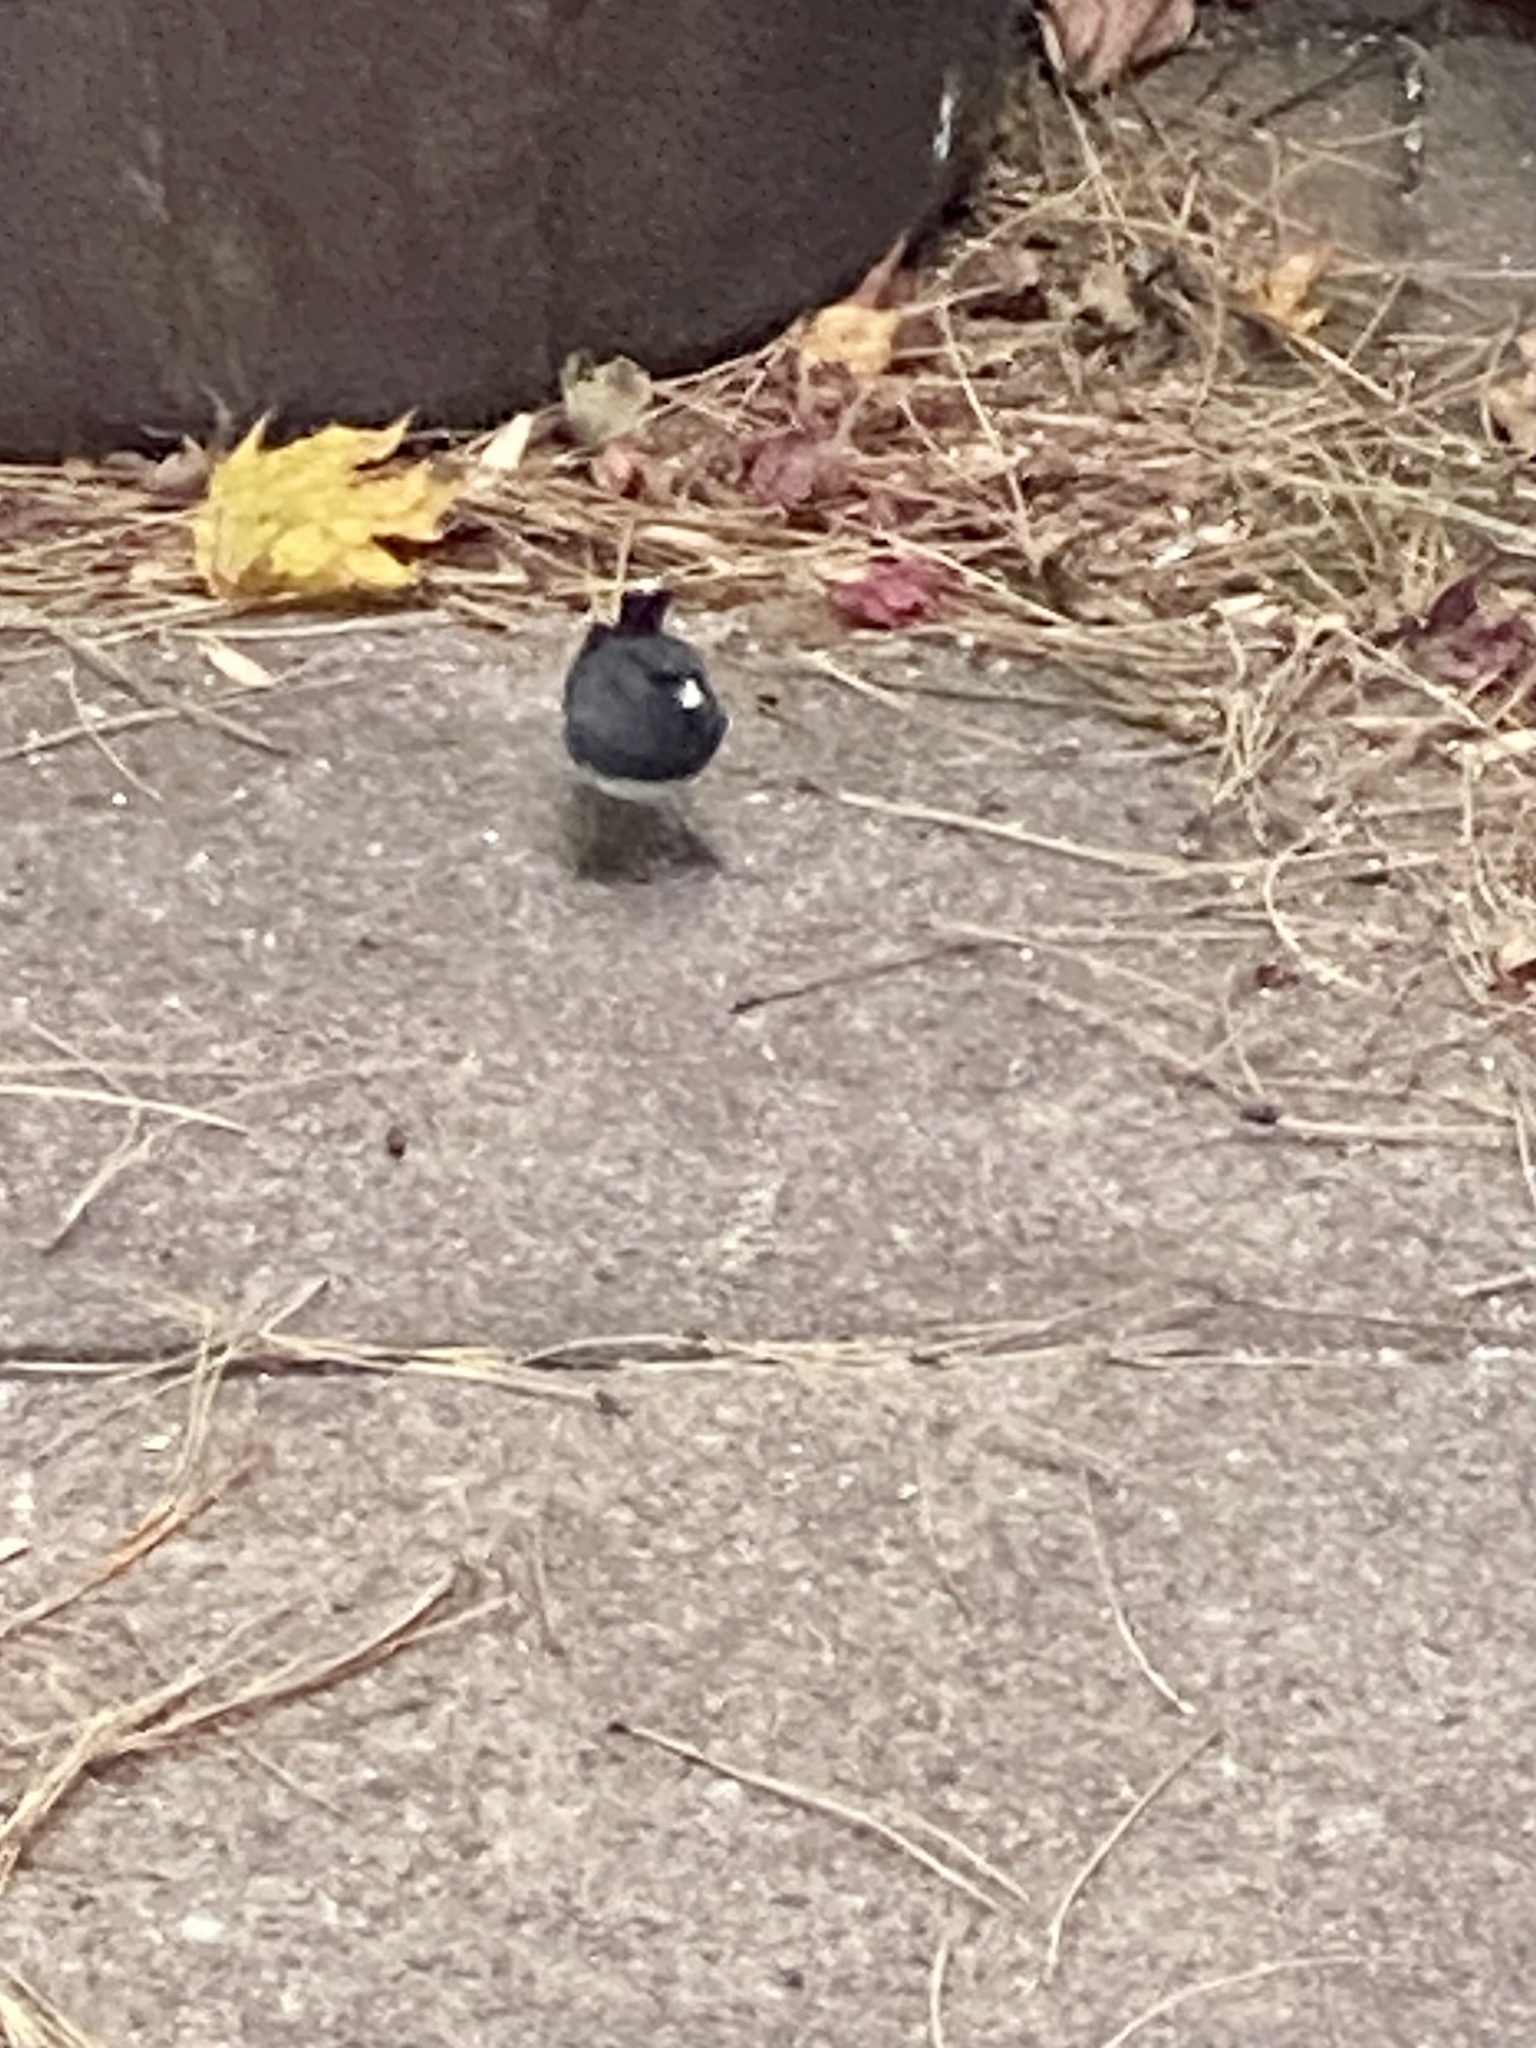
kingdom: Animalia
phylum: Chordata
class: Aves
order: Passeriformes
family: Passerellidae
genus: Junco
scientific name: Junco hyemalis
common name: Dark-eyed junco
